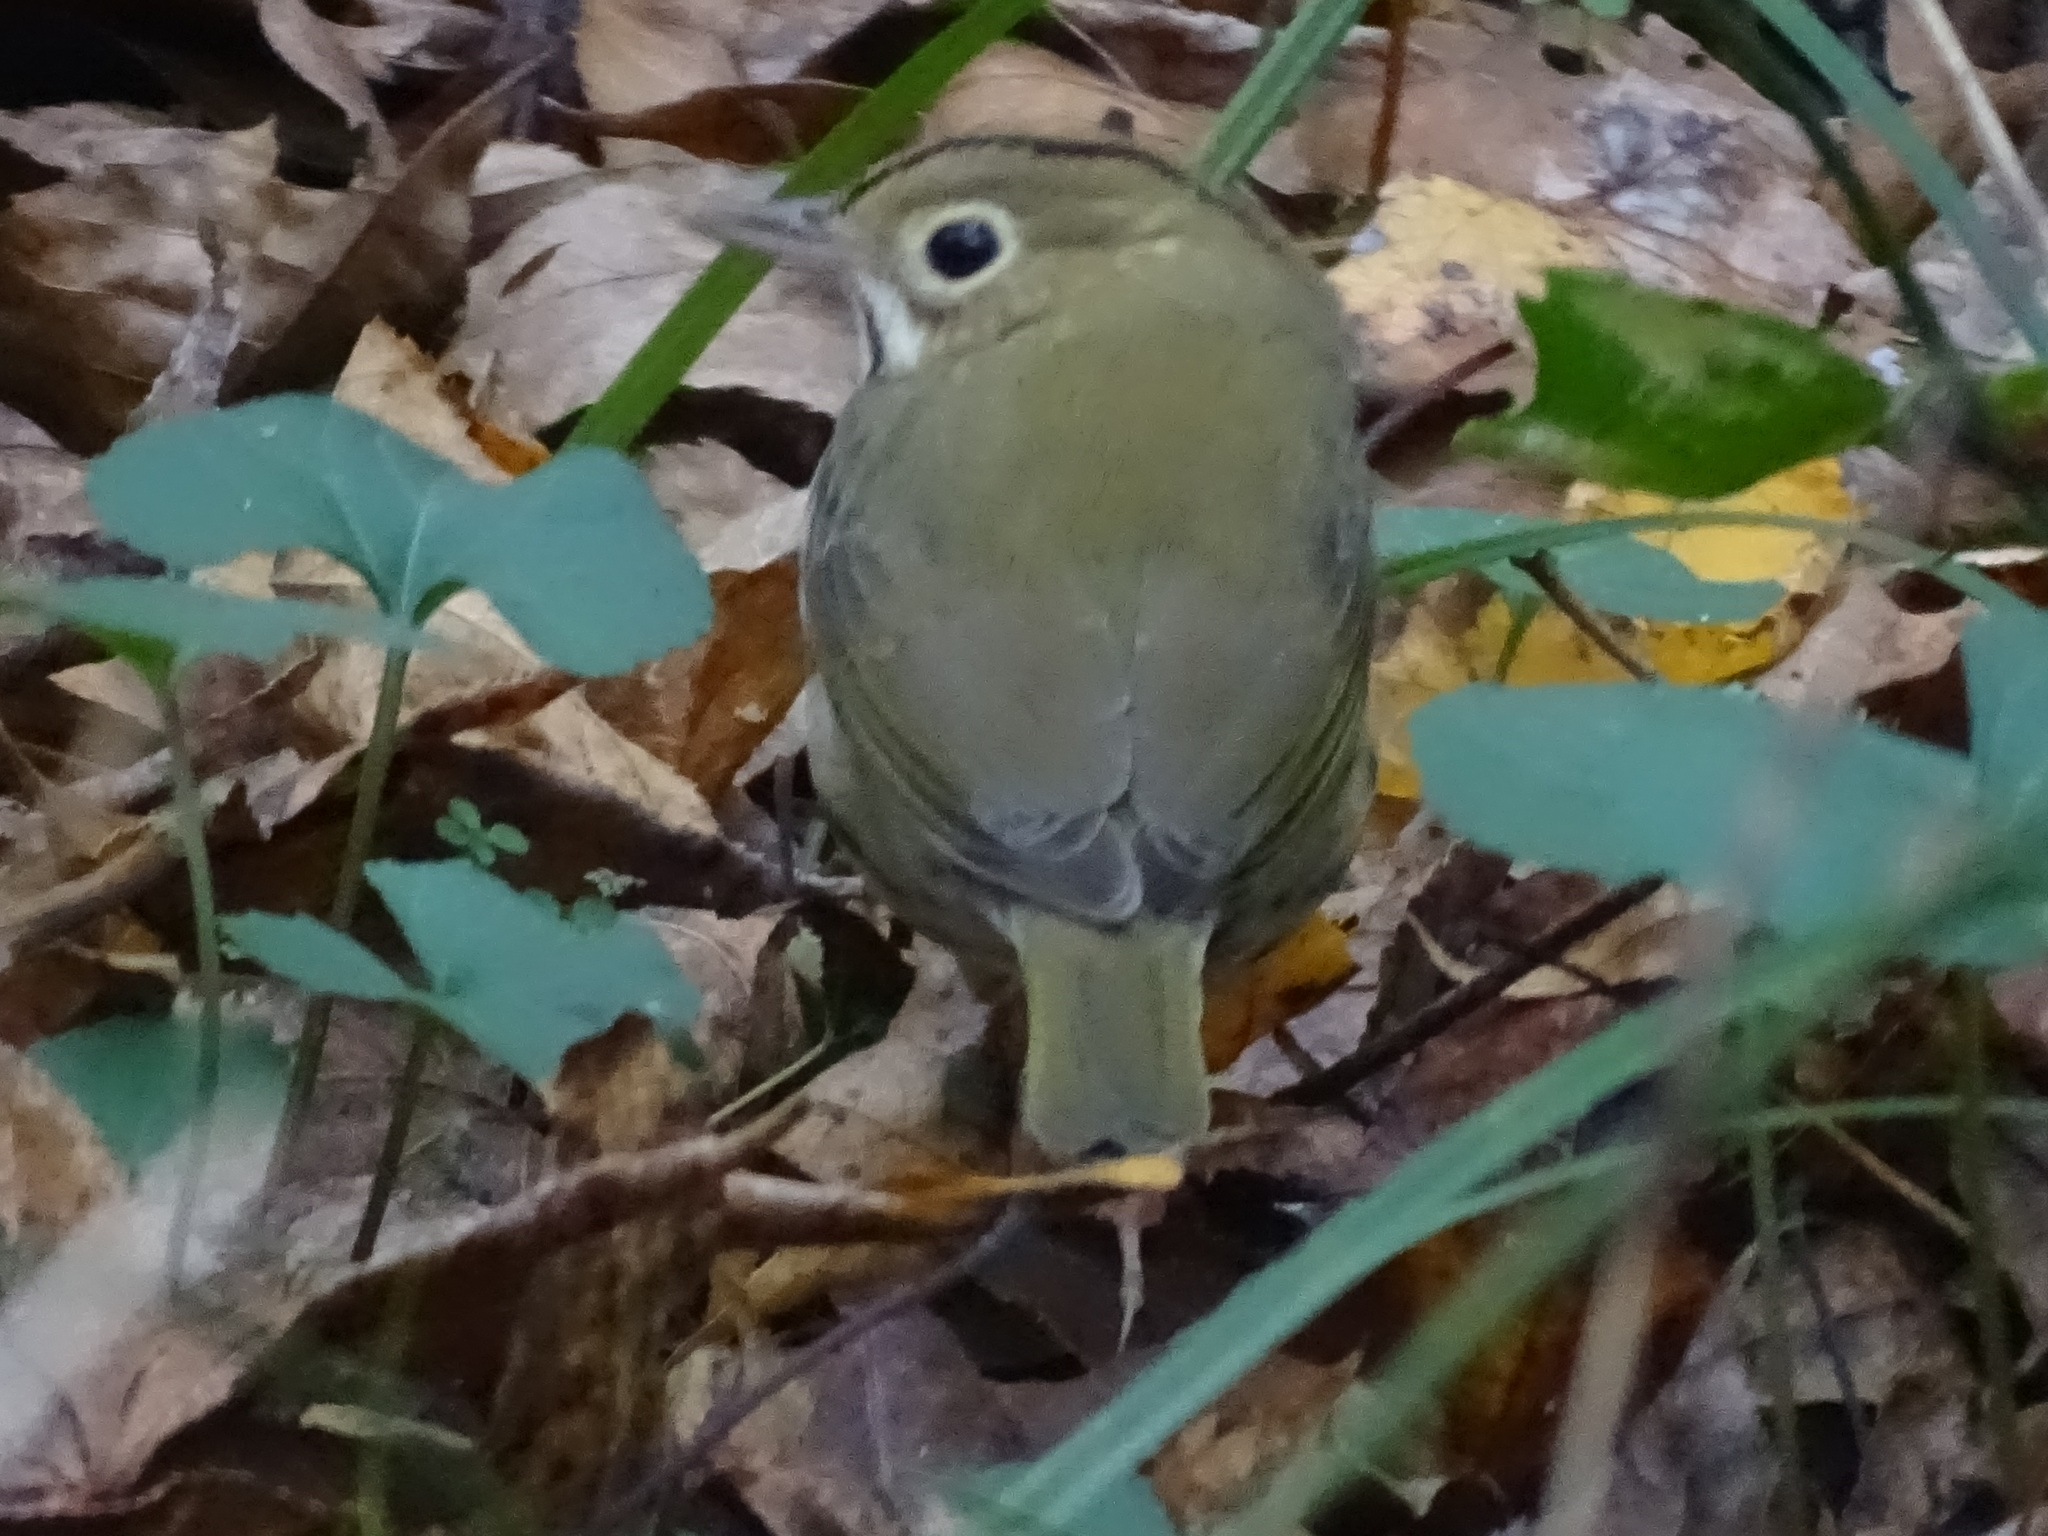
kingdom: Animalia
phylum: Chordata
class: Aves
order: Passeriformes
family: Parulidae
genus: Seiurus
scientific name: Seiurus aurocapilla
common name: Ovenbird
